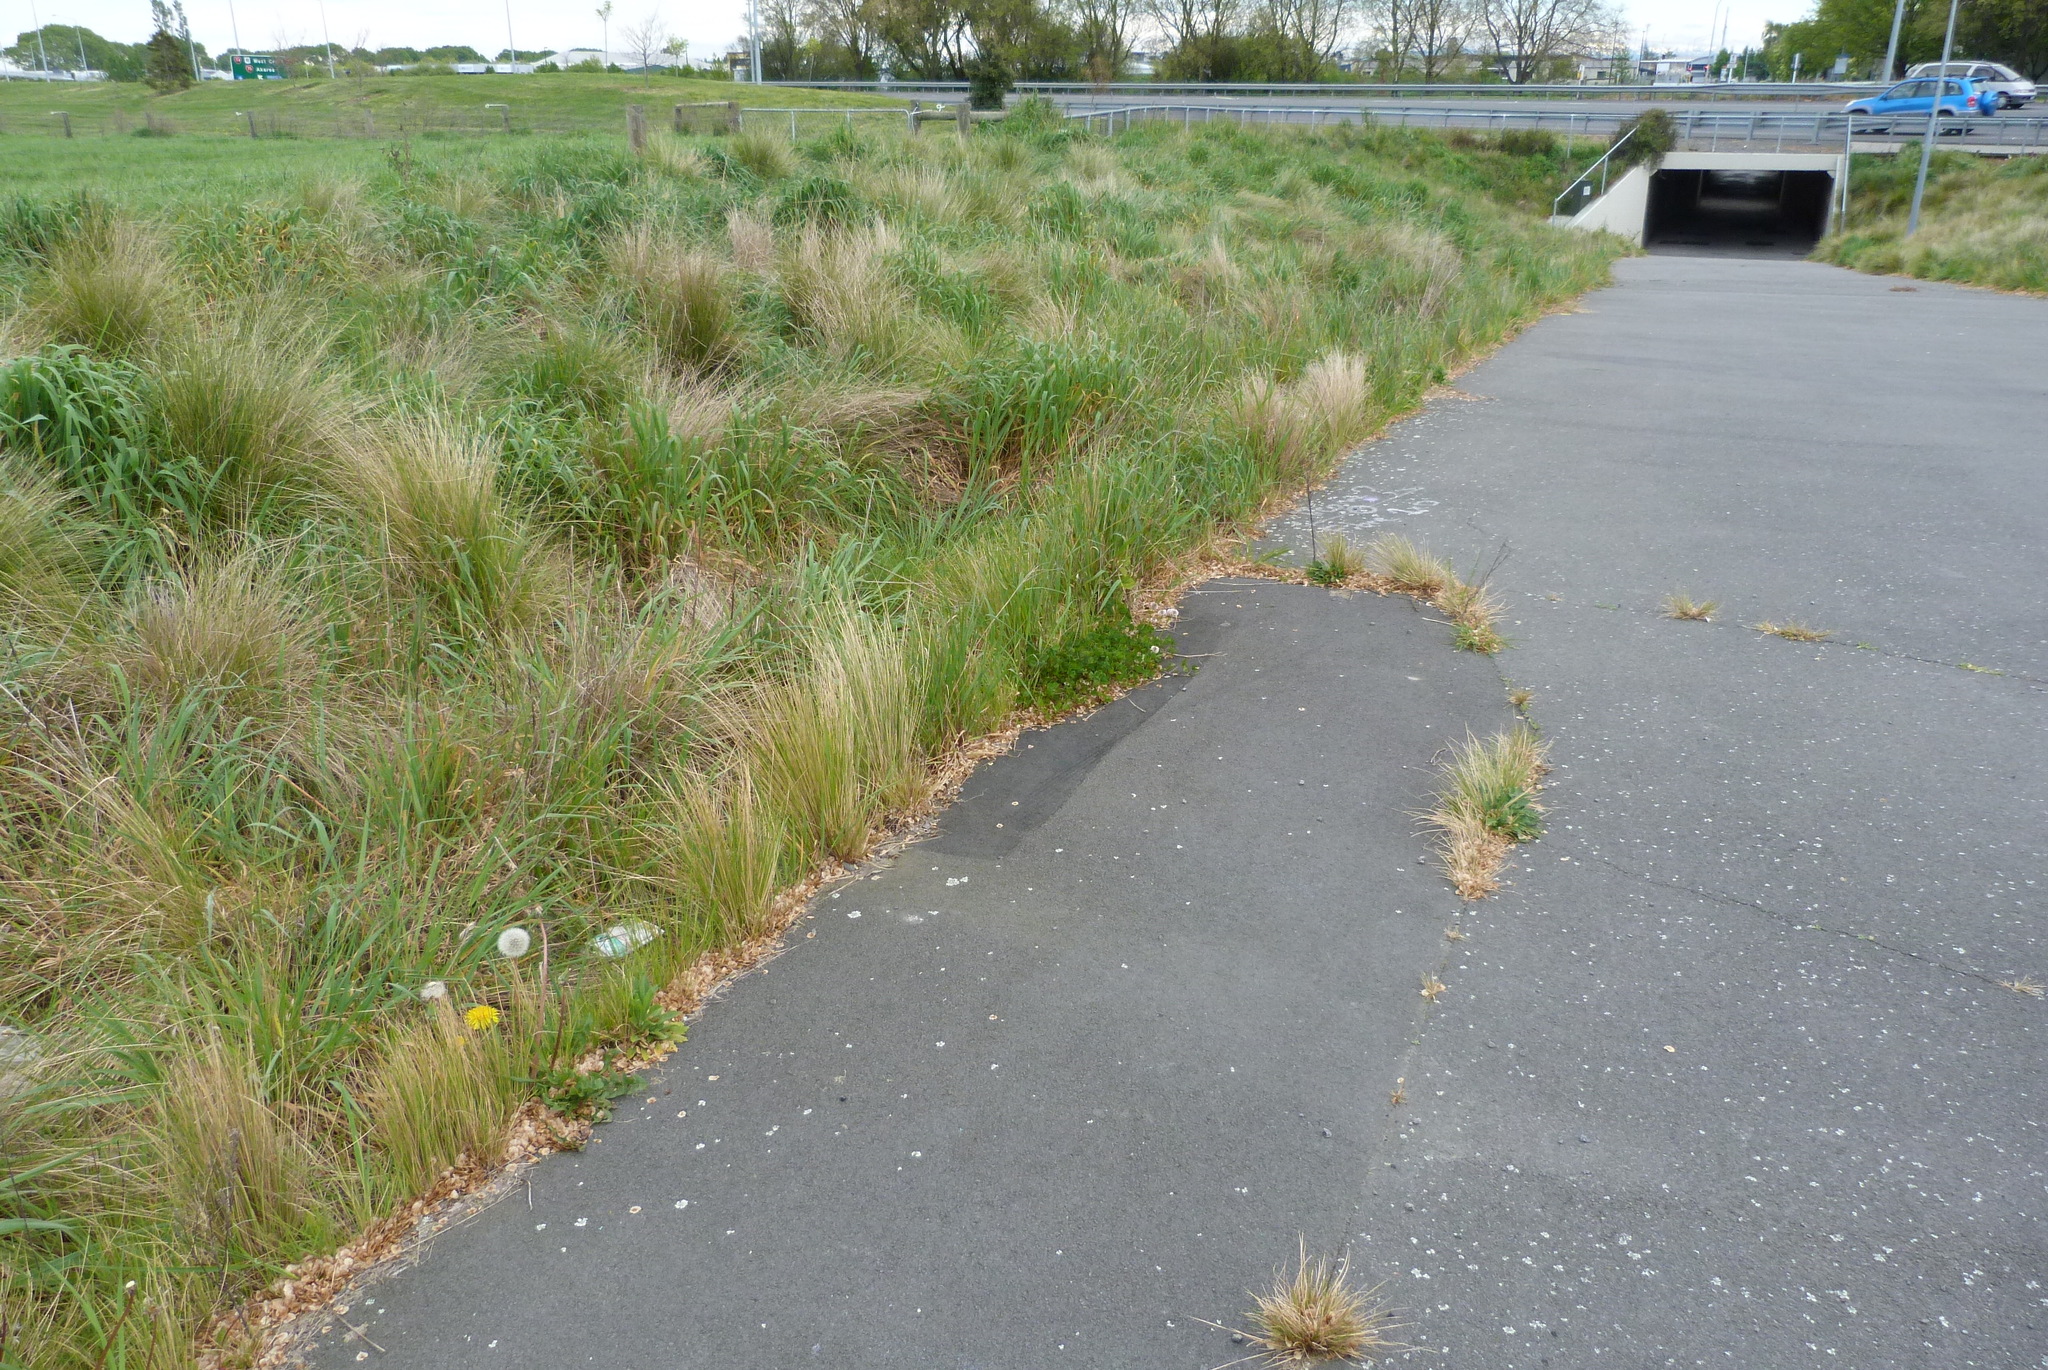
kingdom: Plantae
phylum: Tracheophyta
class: Liliopsida
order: Poales
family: Poaceae
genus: Poa
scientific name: Poa cita
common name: Silver tussock
